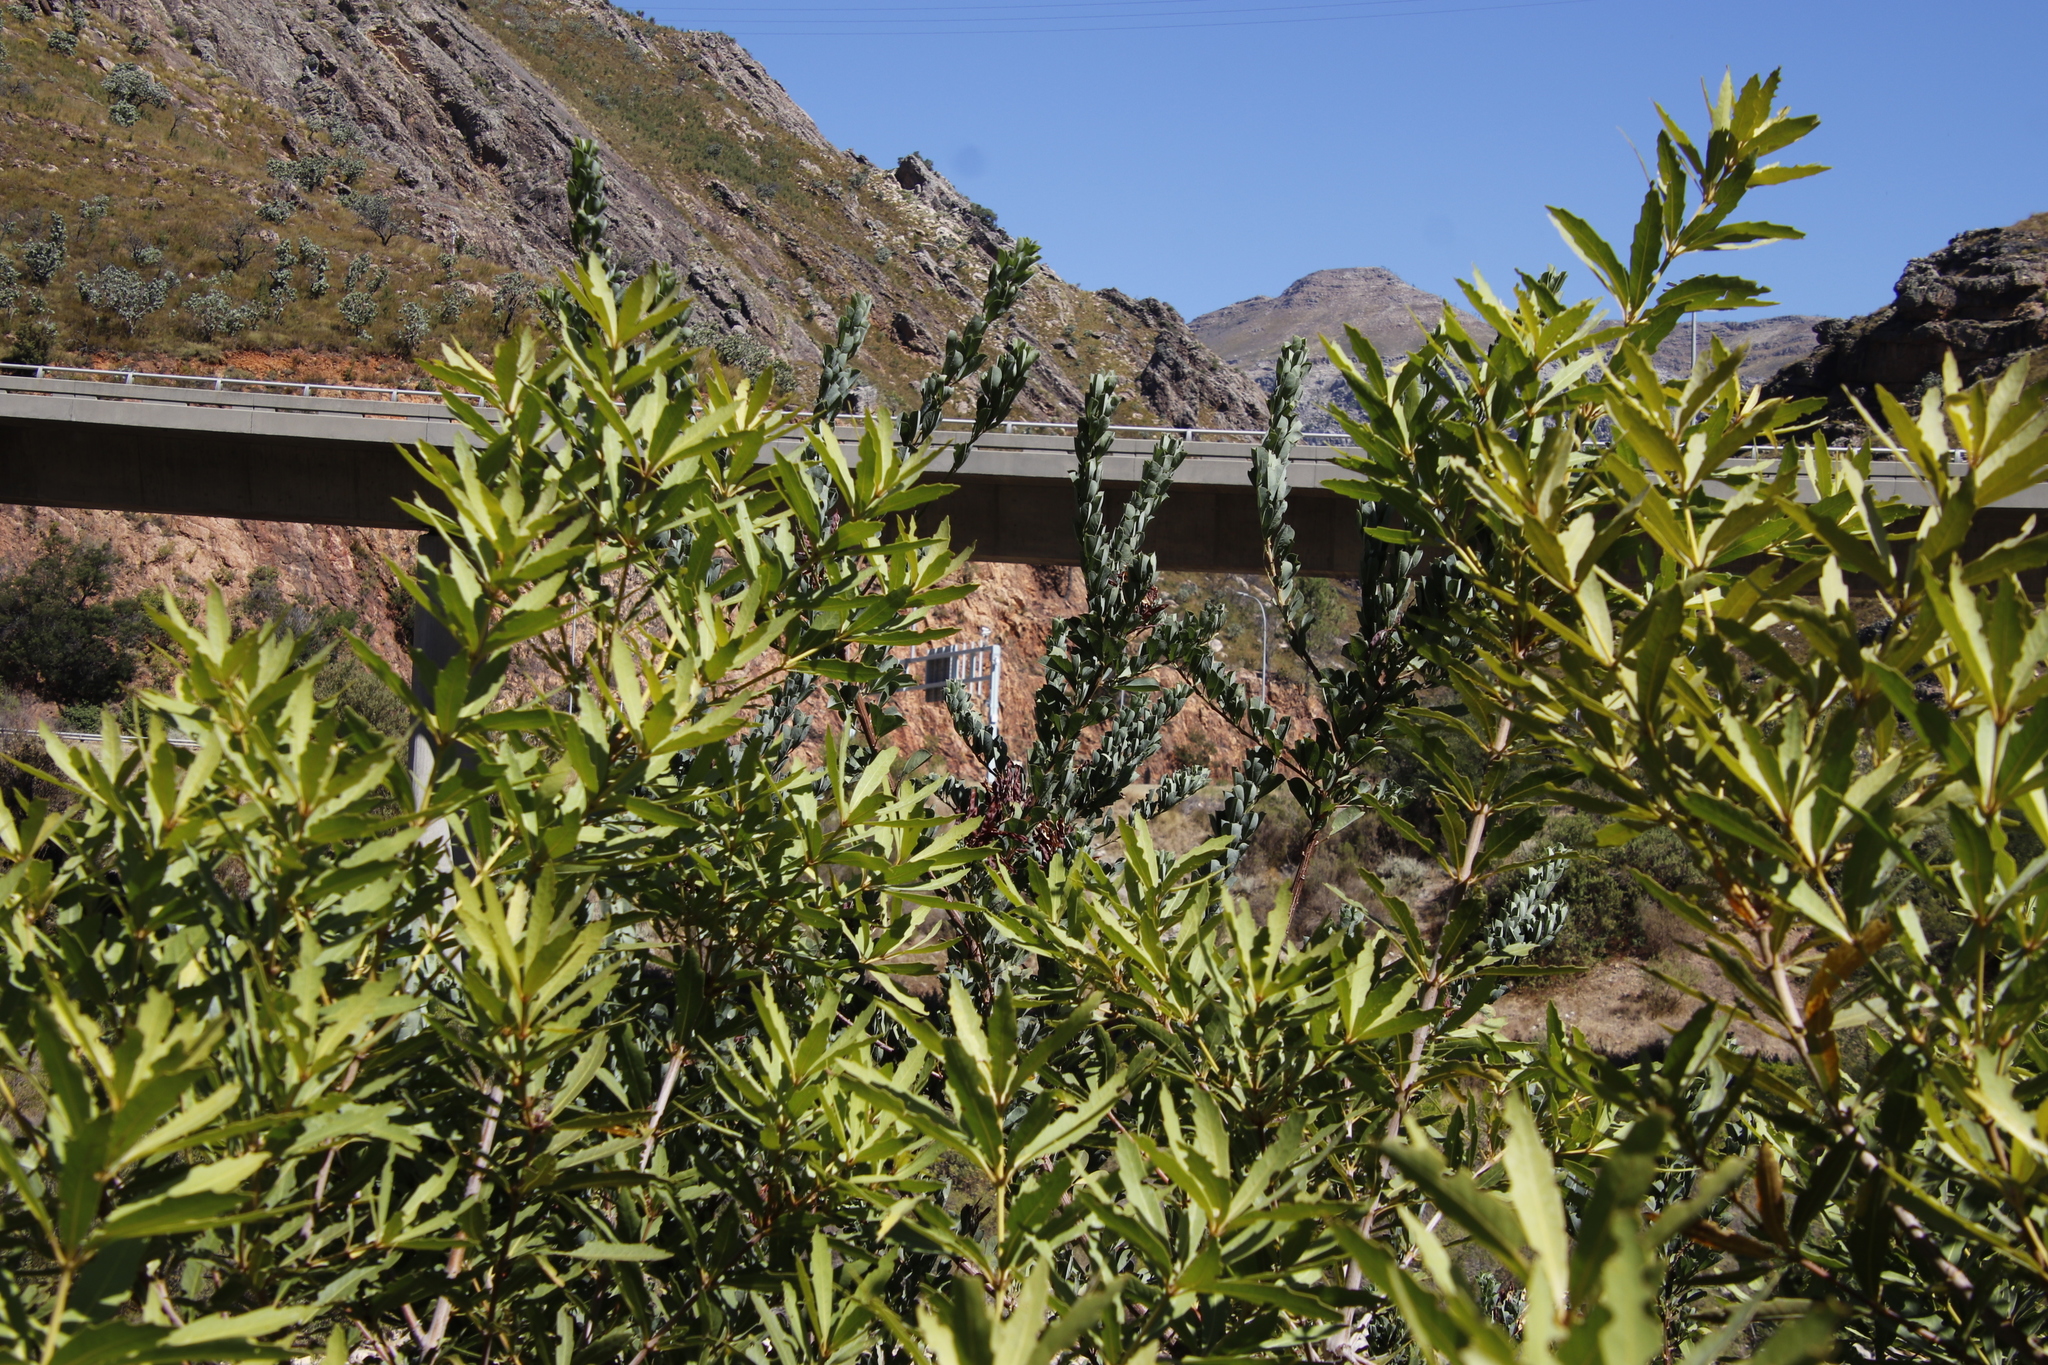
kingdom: Plantae
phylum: Tracheophyta
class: Magnoliopsida
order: Fabales
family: Fabaceae
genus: Hypocalyptus
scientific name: Hypocalyptus sophoroides
